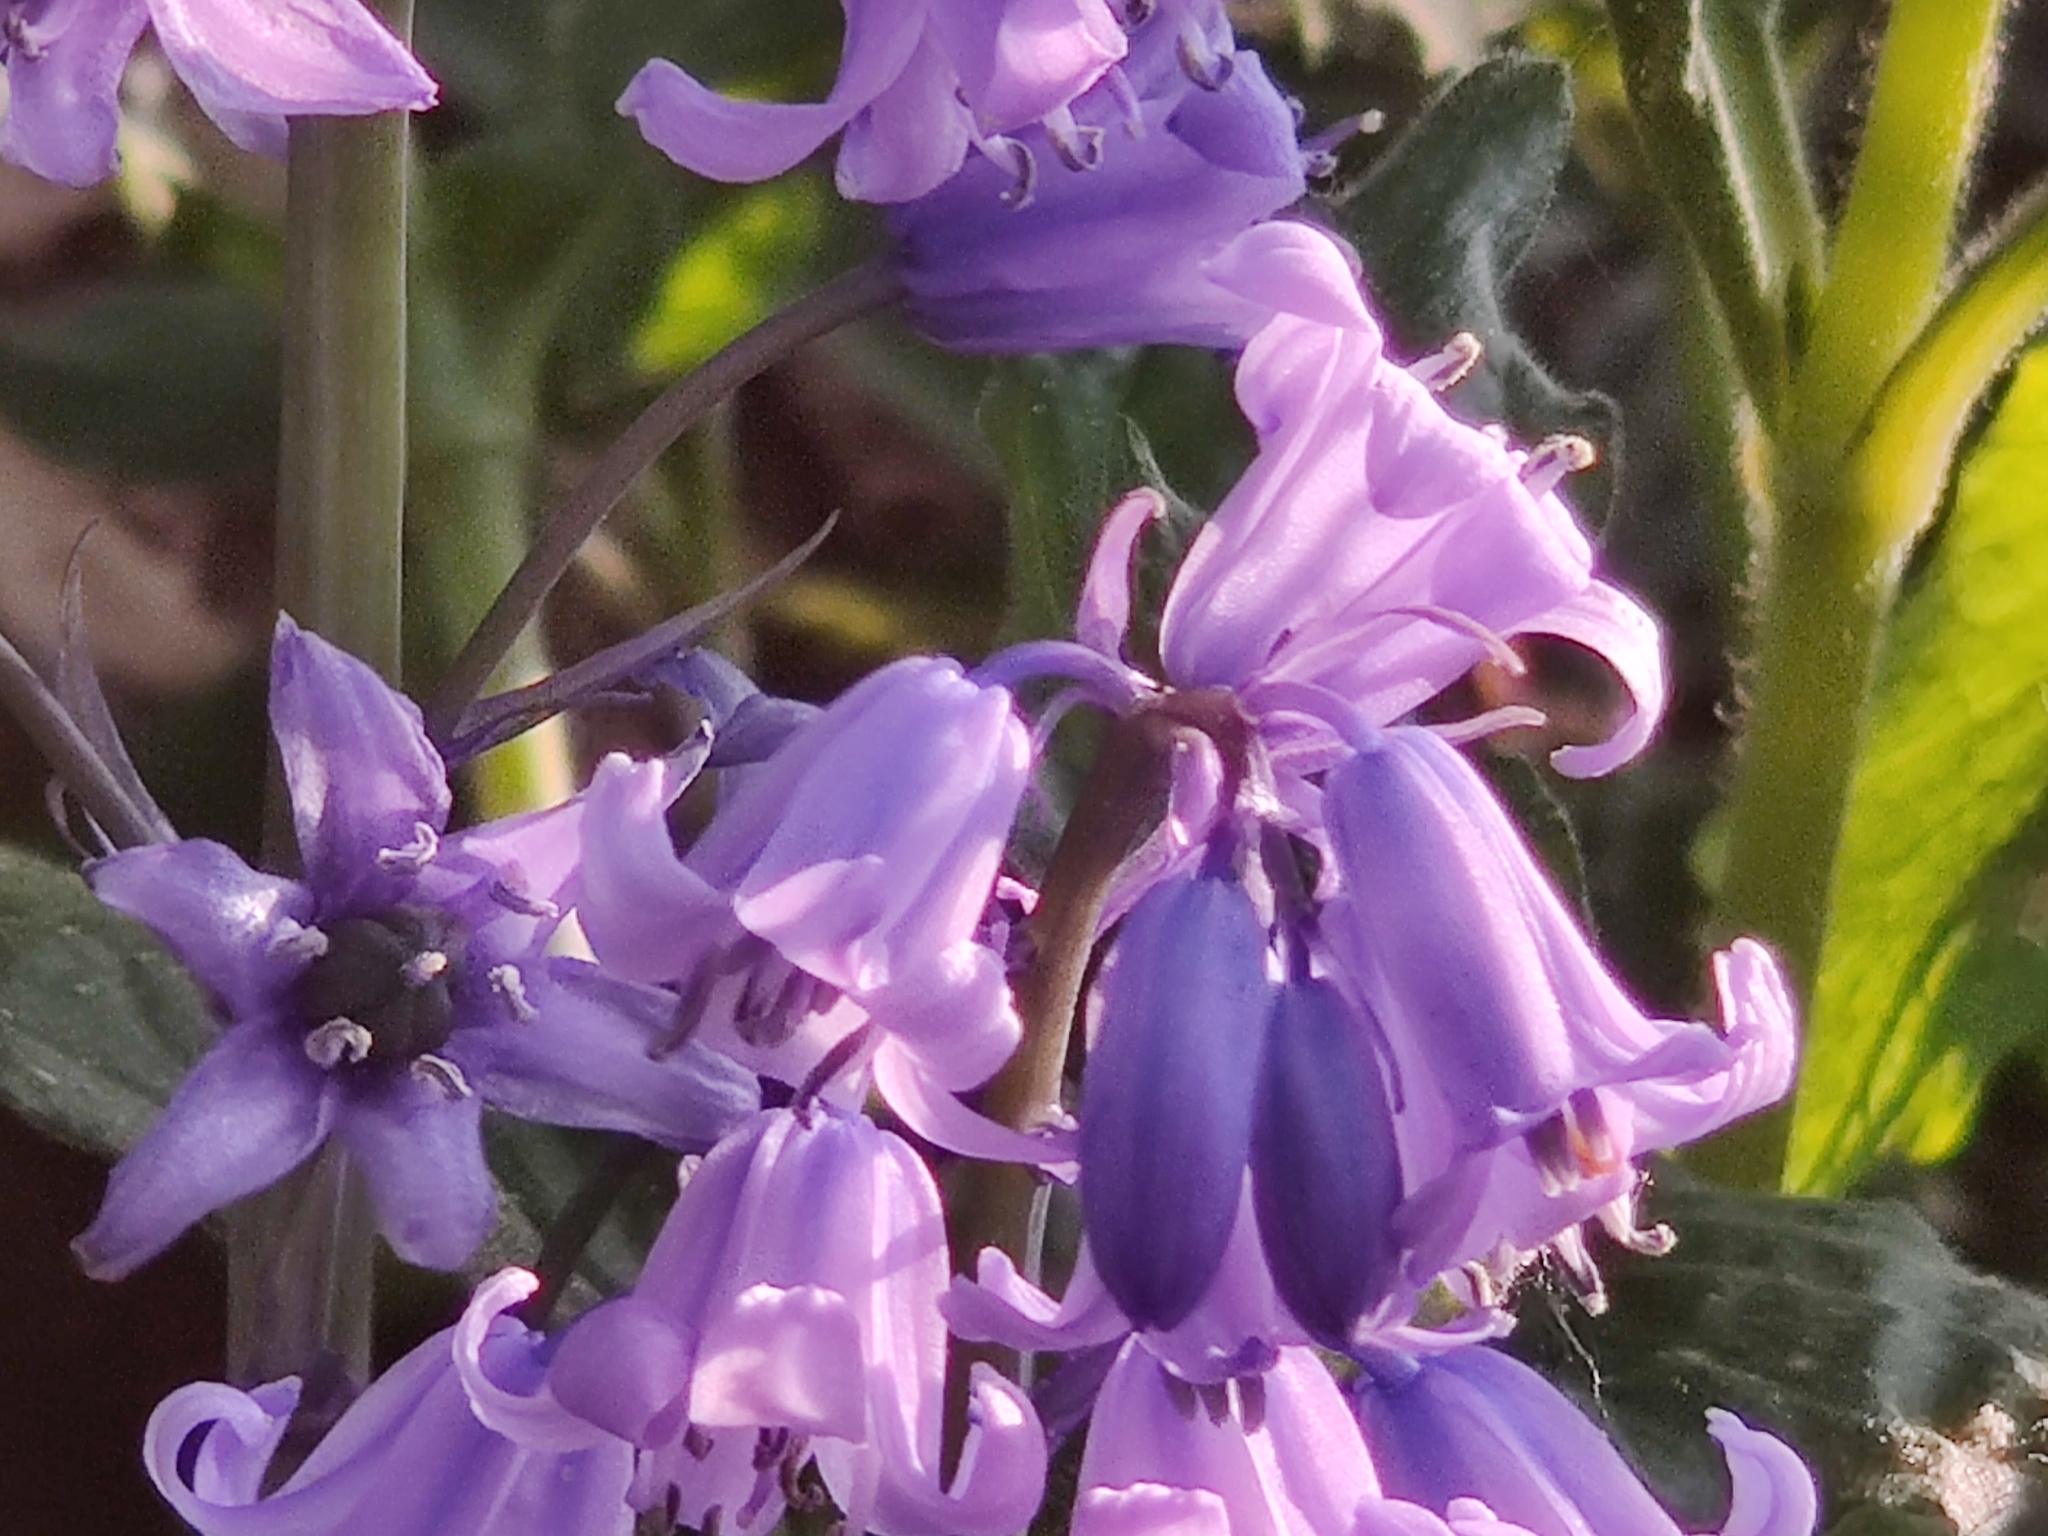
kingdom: Plantae
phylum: Tracheophyta
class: Liliopsida
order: Asparagales
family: Asparagaceae
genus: Hyacinthoides
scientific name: Hyacinthoides hispanica
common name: Spanish bluebell
